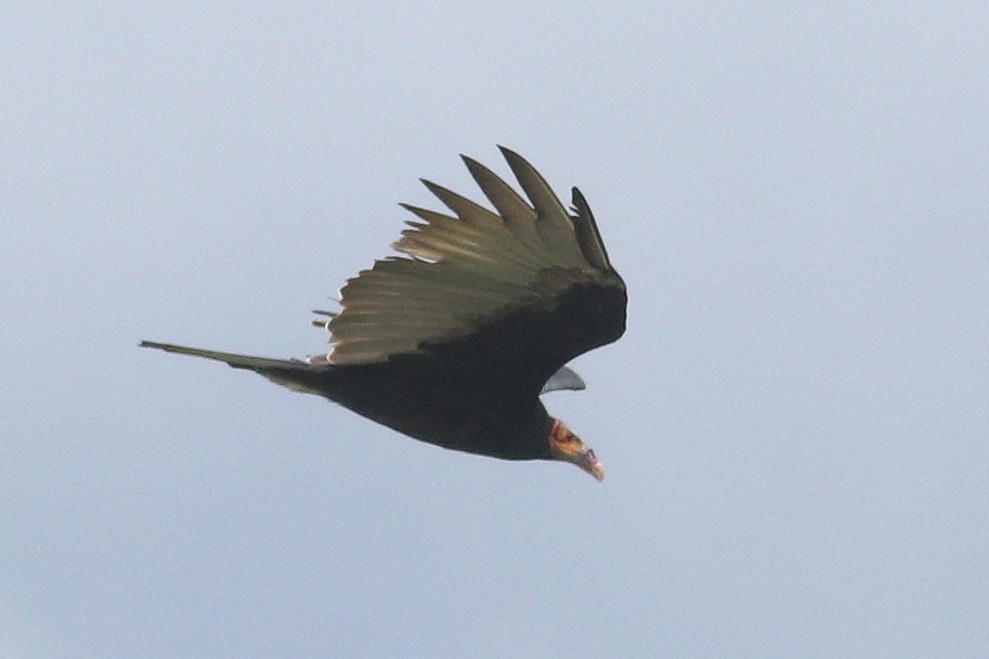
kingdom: Animalia
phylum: Chordata
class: Aves
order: Accipitriformes
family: Cathartidae
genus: Cathartes
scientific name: Cathartes melambrotus
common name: Greater yellow-headed vulture
